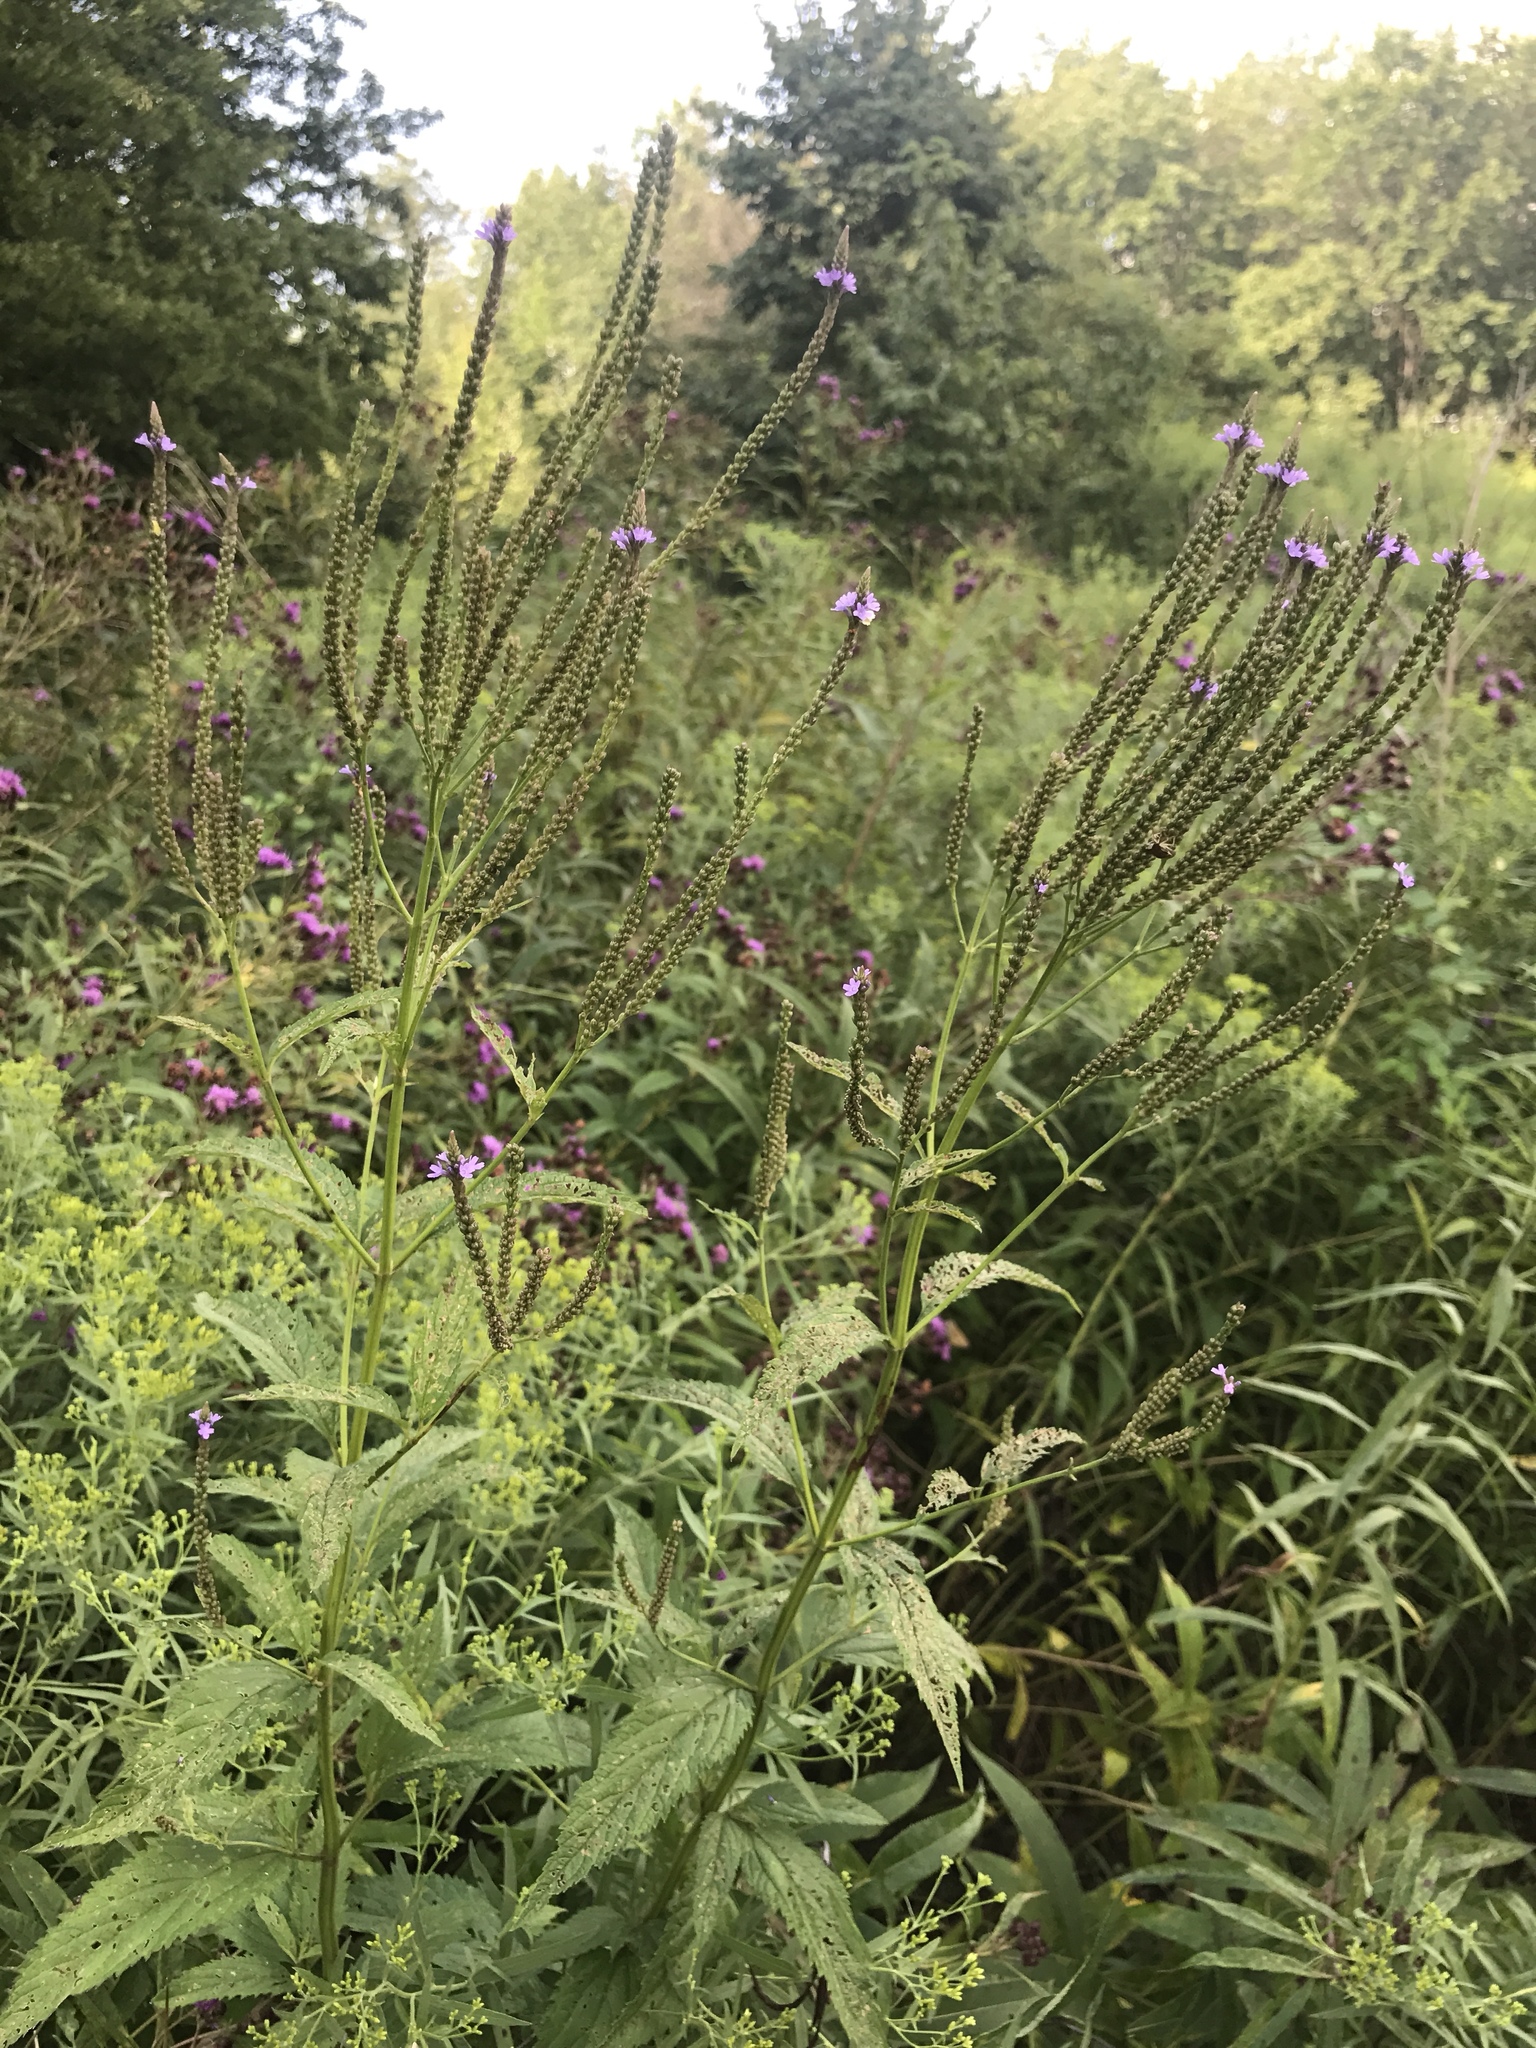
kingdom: Plantae
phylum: Tracheophyta
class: Magnoliopsida
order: Lamiales
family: Verbenaceae
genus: Verbena
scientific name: Verbena hastata
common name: American blue vervain
